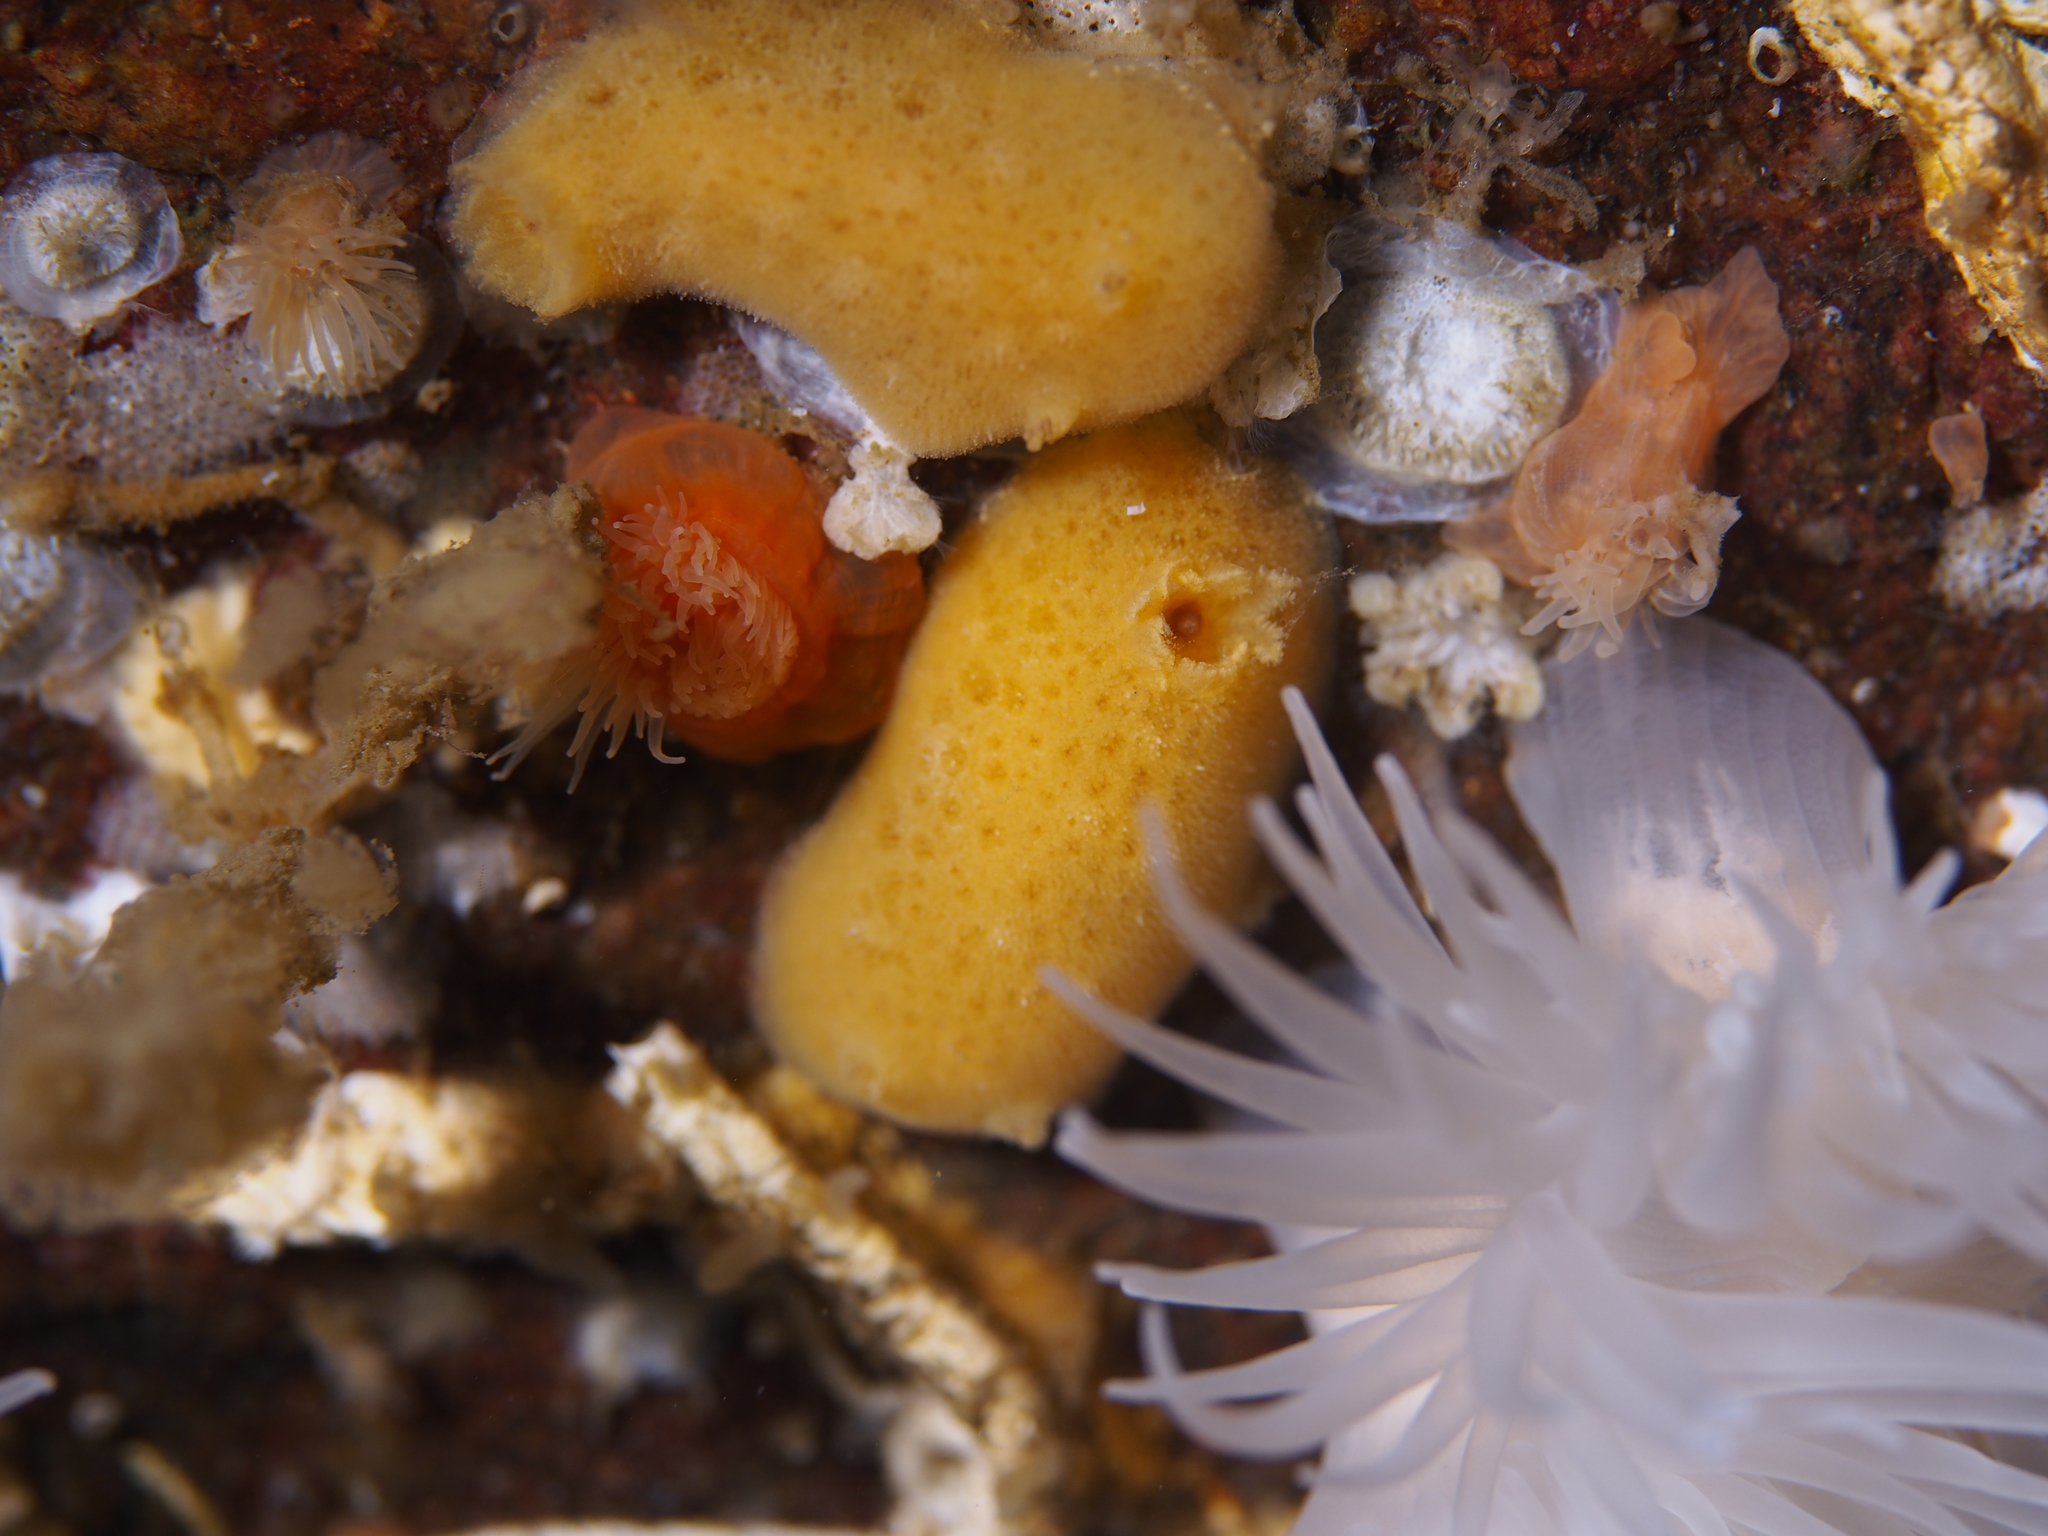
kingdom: Animalia
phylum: Mollusca
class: Gastropoda
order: Nudibranchia
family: Discodorididae
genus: Jorunna
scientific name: Jorunna tomentosa
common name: Grey sea slug
